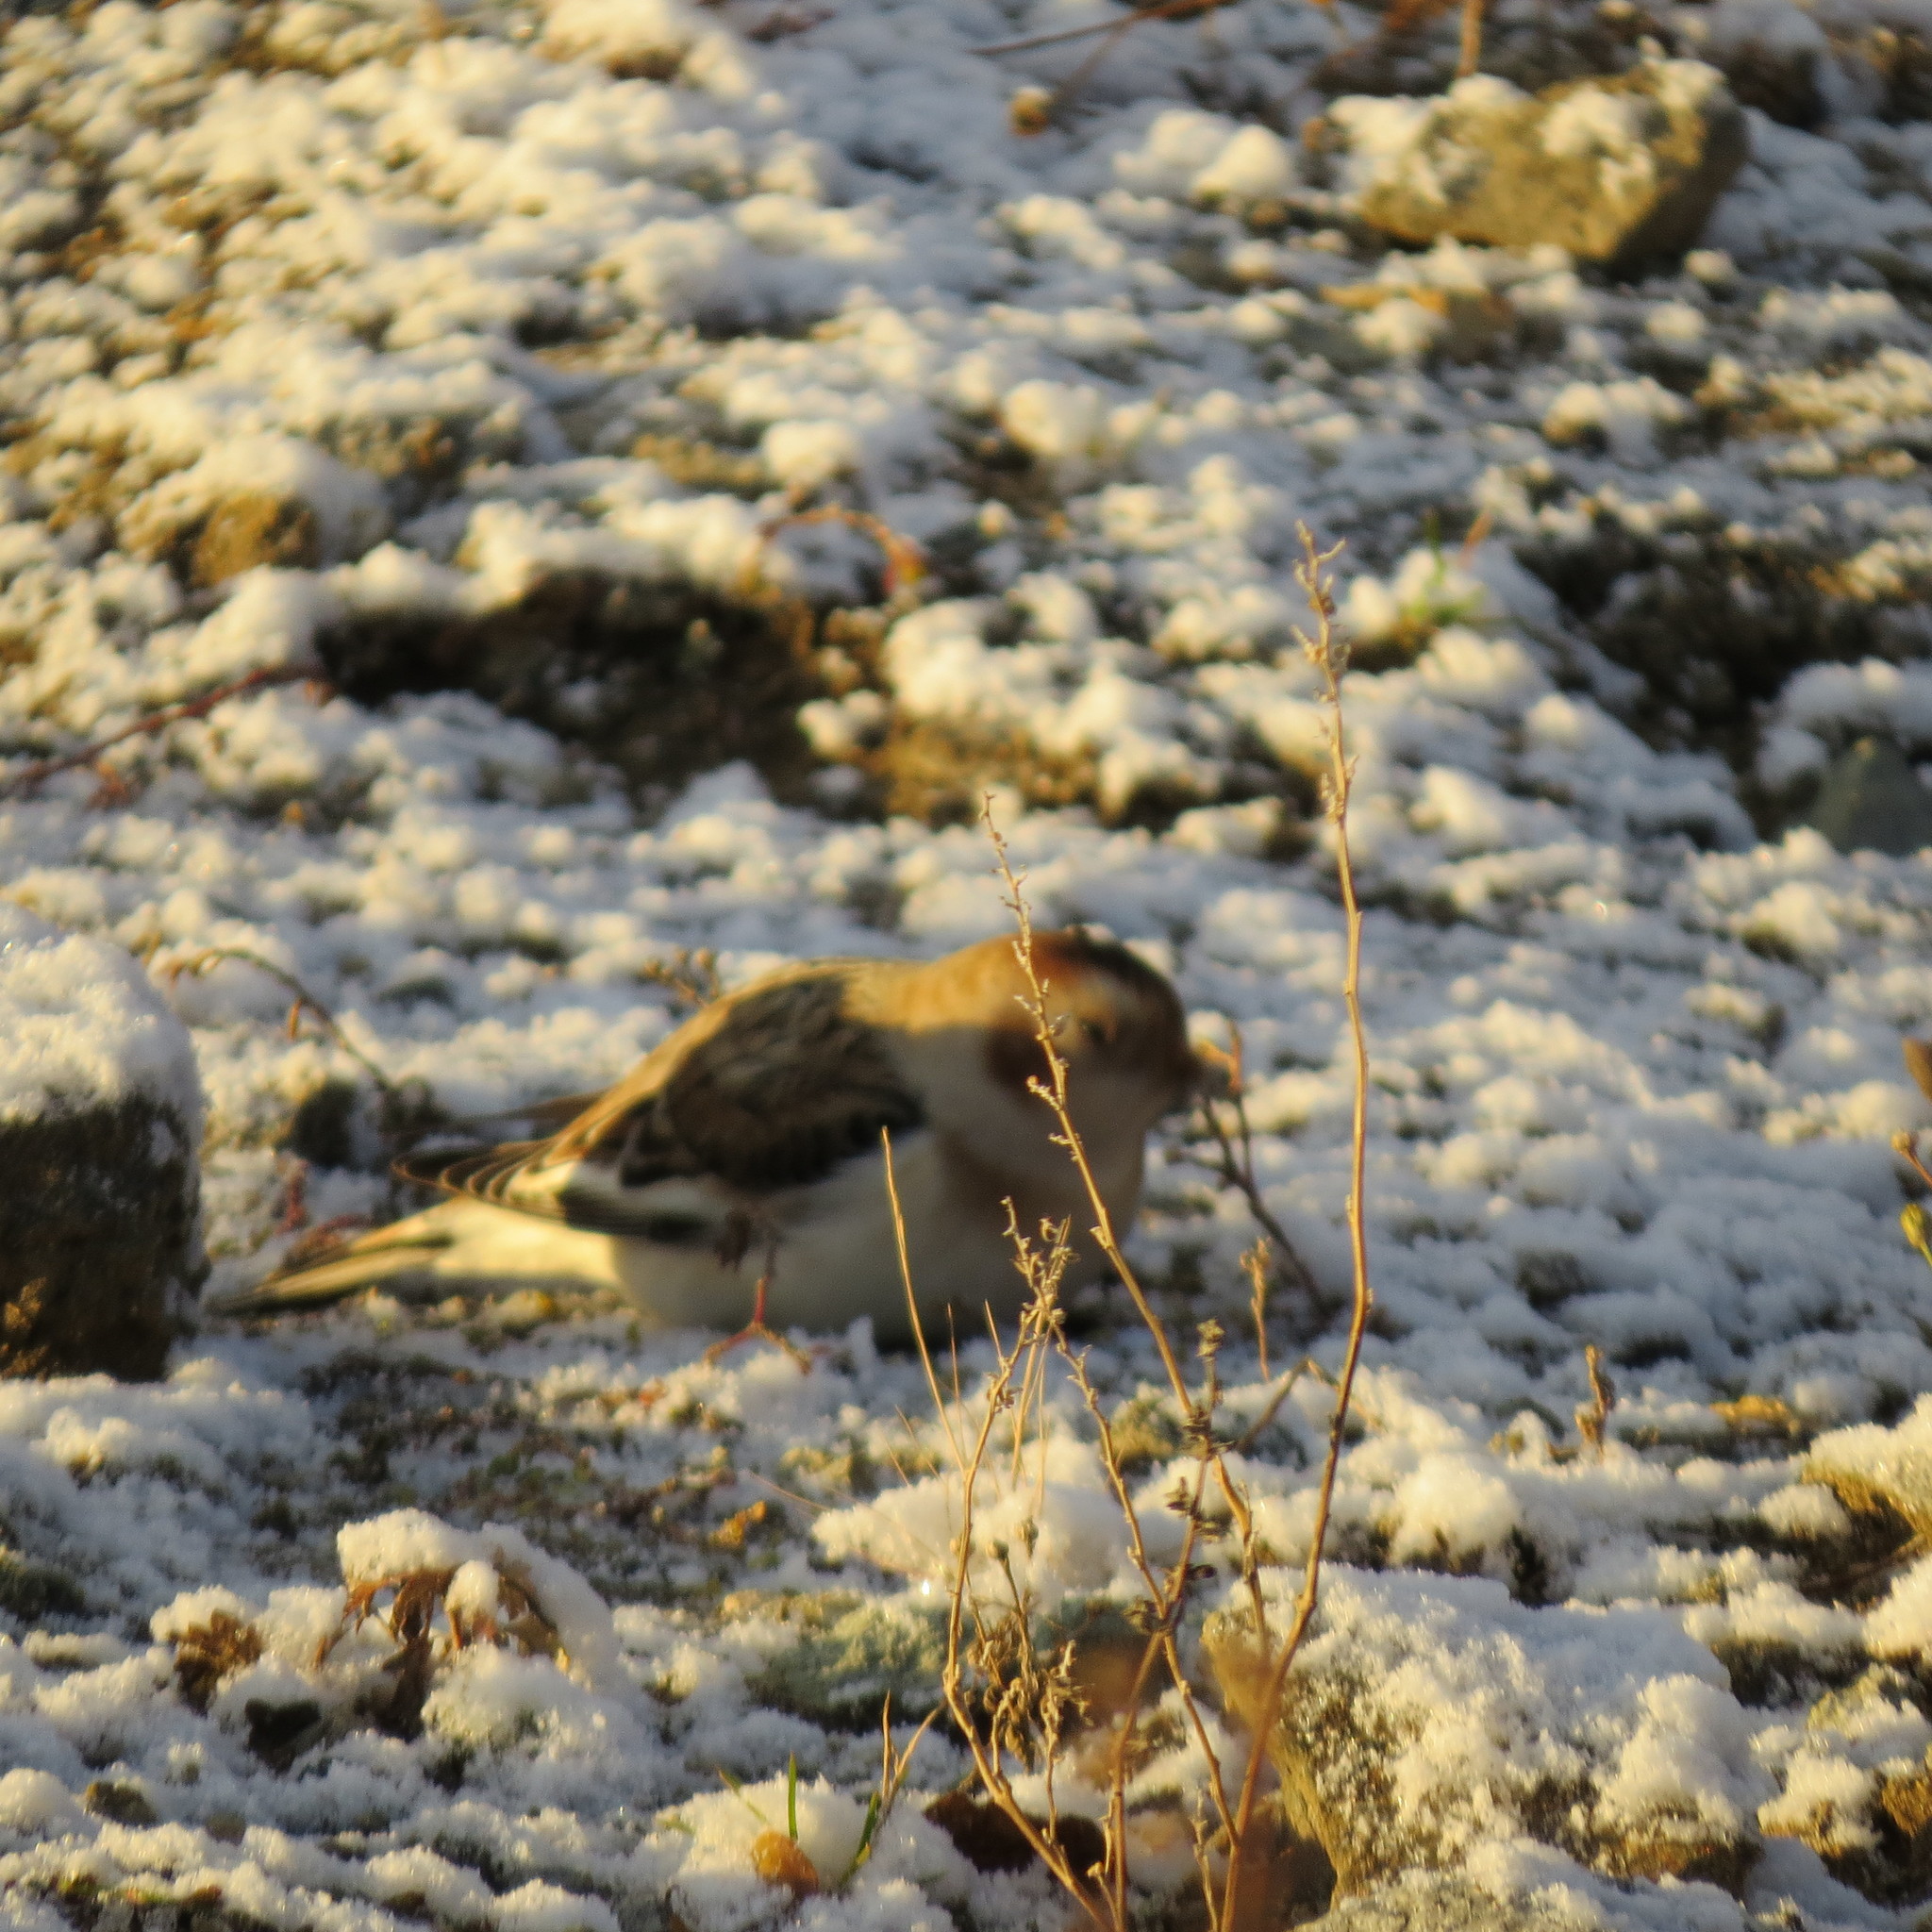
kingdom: Animalia
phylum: Chordata
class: Aves
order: Passeriformes
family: Calcariidae
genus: Plectrophenax
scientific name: Plectrophenax nivalis
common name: Snow bunting
